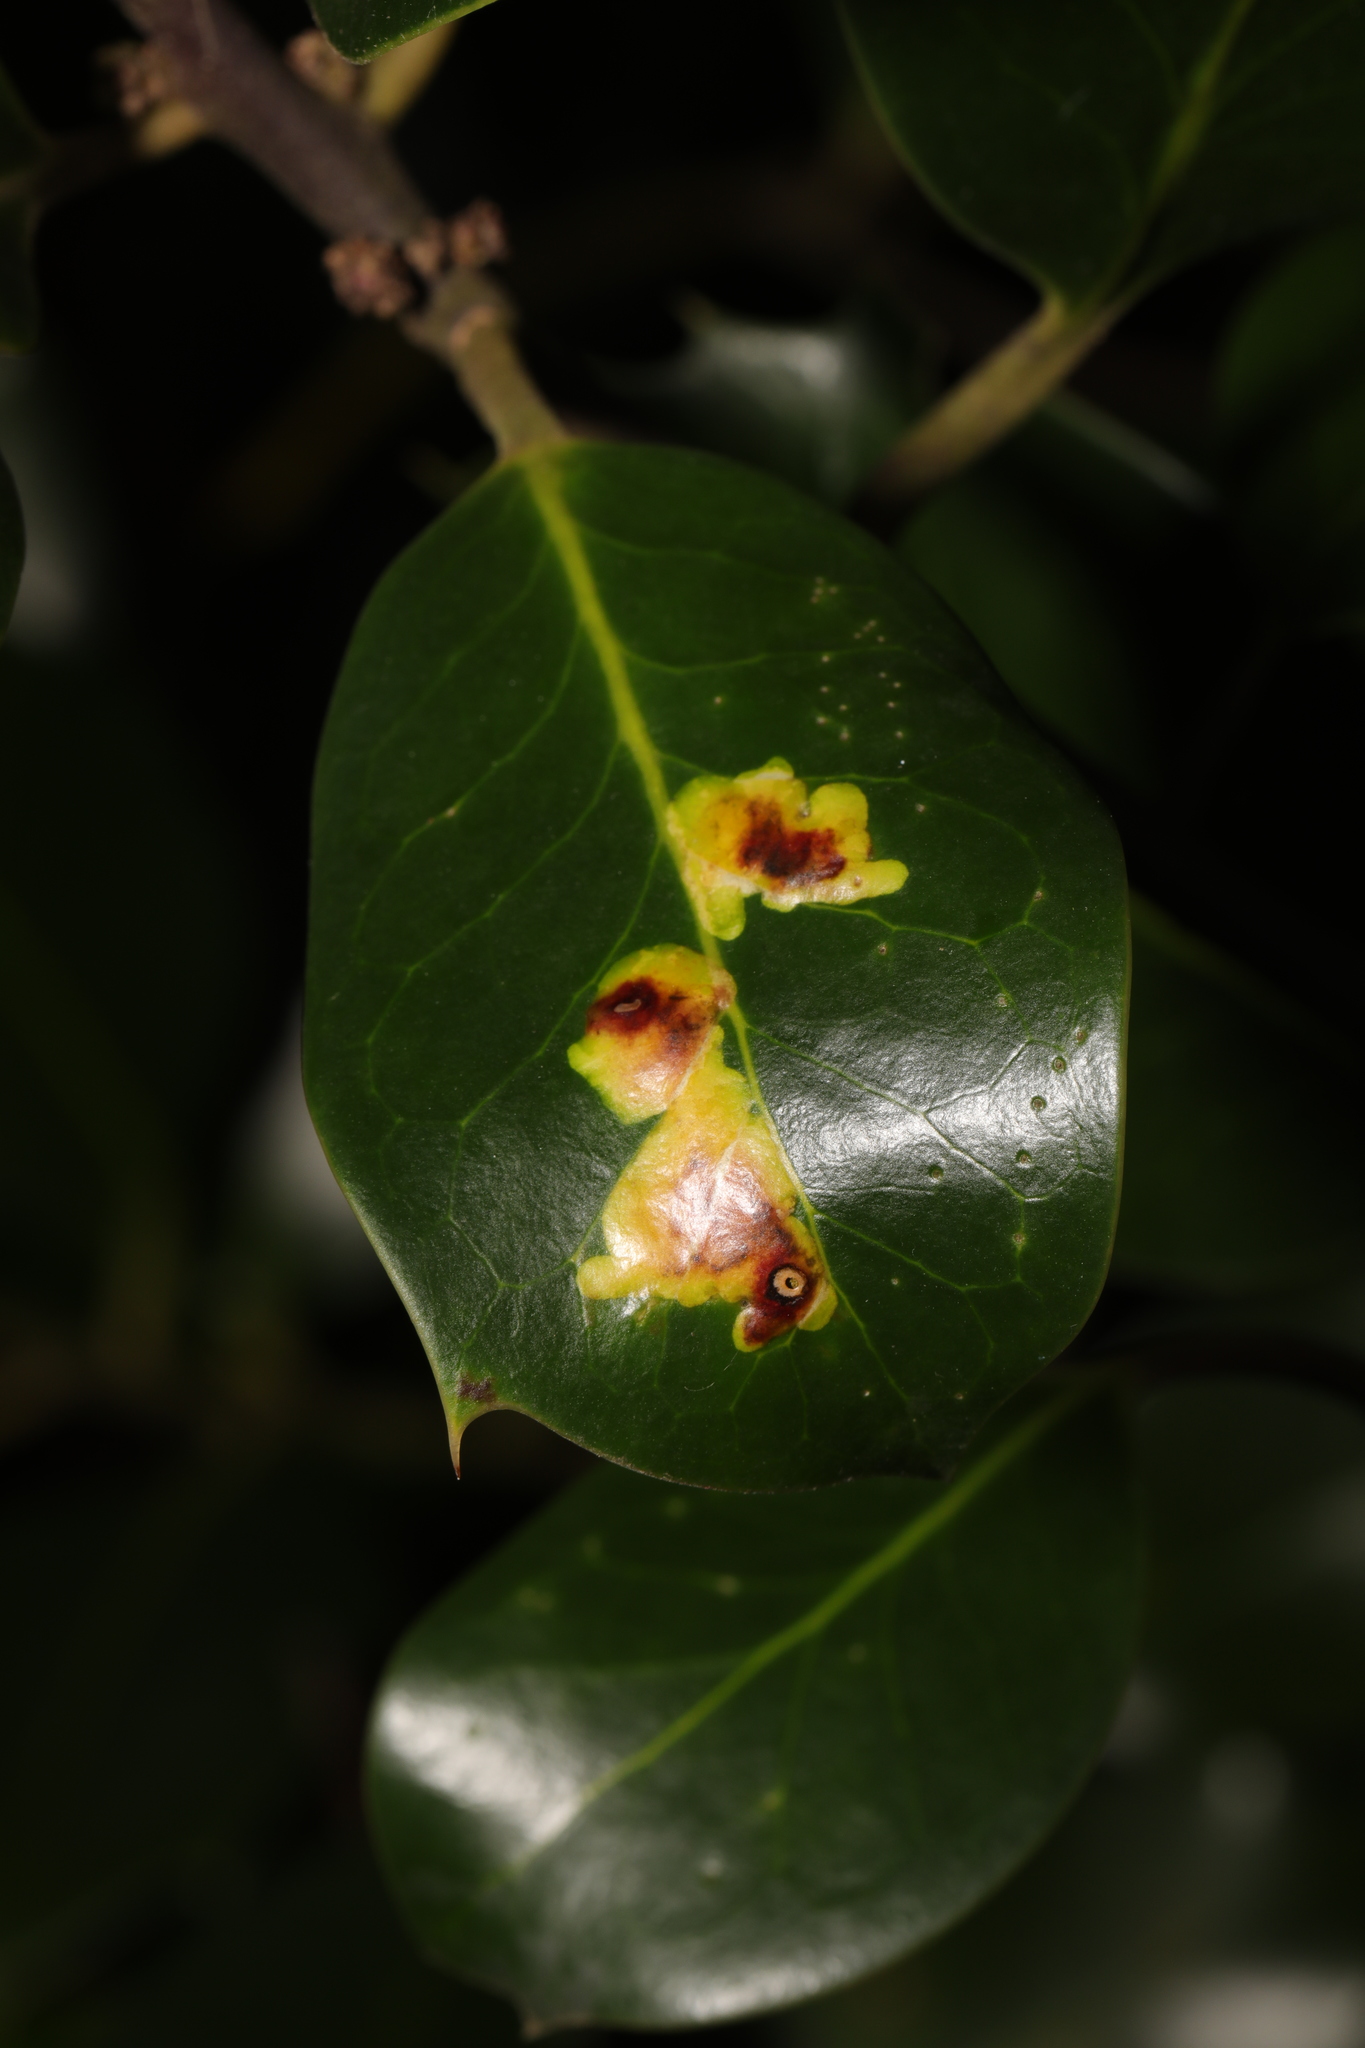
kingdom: Animalia
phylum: Arthropoda
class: Insecta
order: Diptera
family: Agromyzidae
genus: Phytomyza
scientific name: Phytomyza ilicis
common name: Holly leafminer
